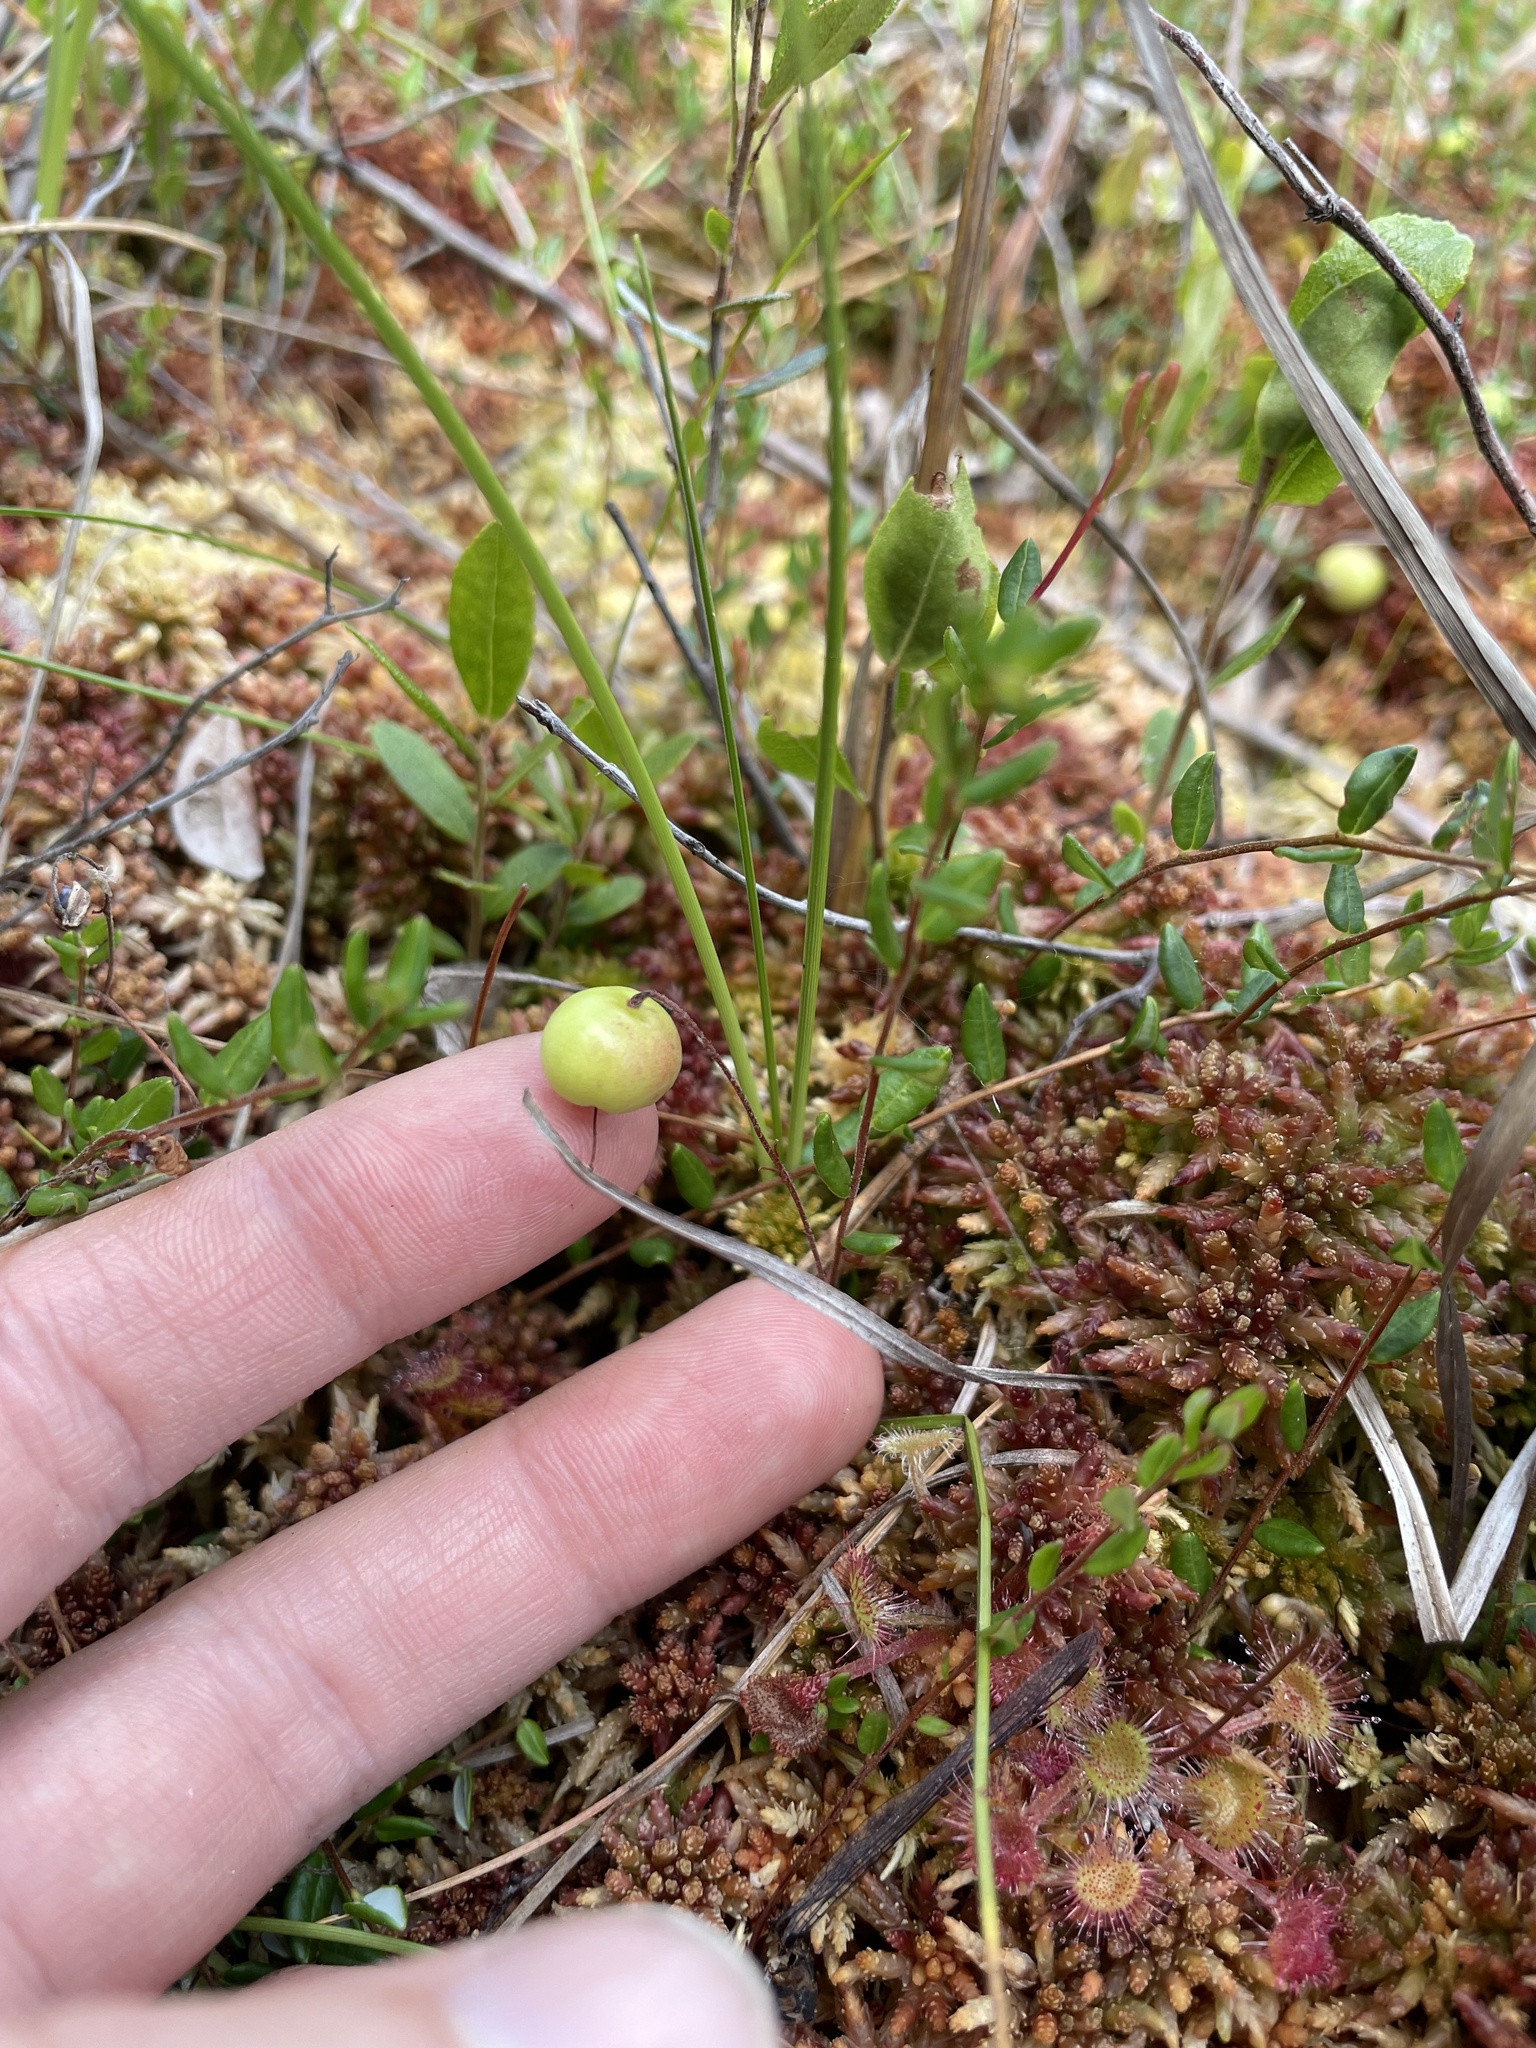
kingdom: Plantae
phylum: Tracheophyta
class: Magnoliopsida
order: Ericales
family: Ericaceae
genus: Vaccinium
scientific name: Vaccinium oxycoccos
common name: Cranberry
